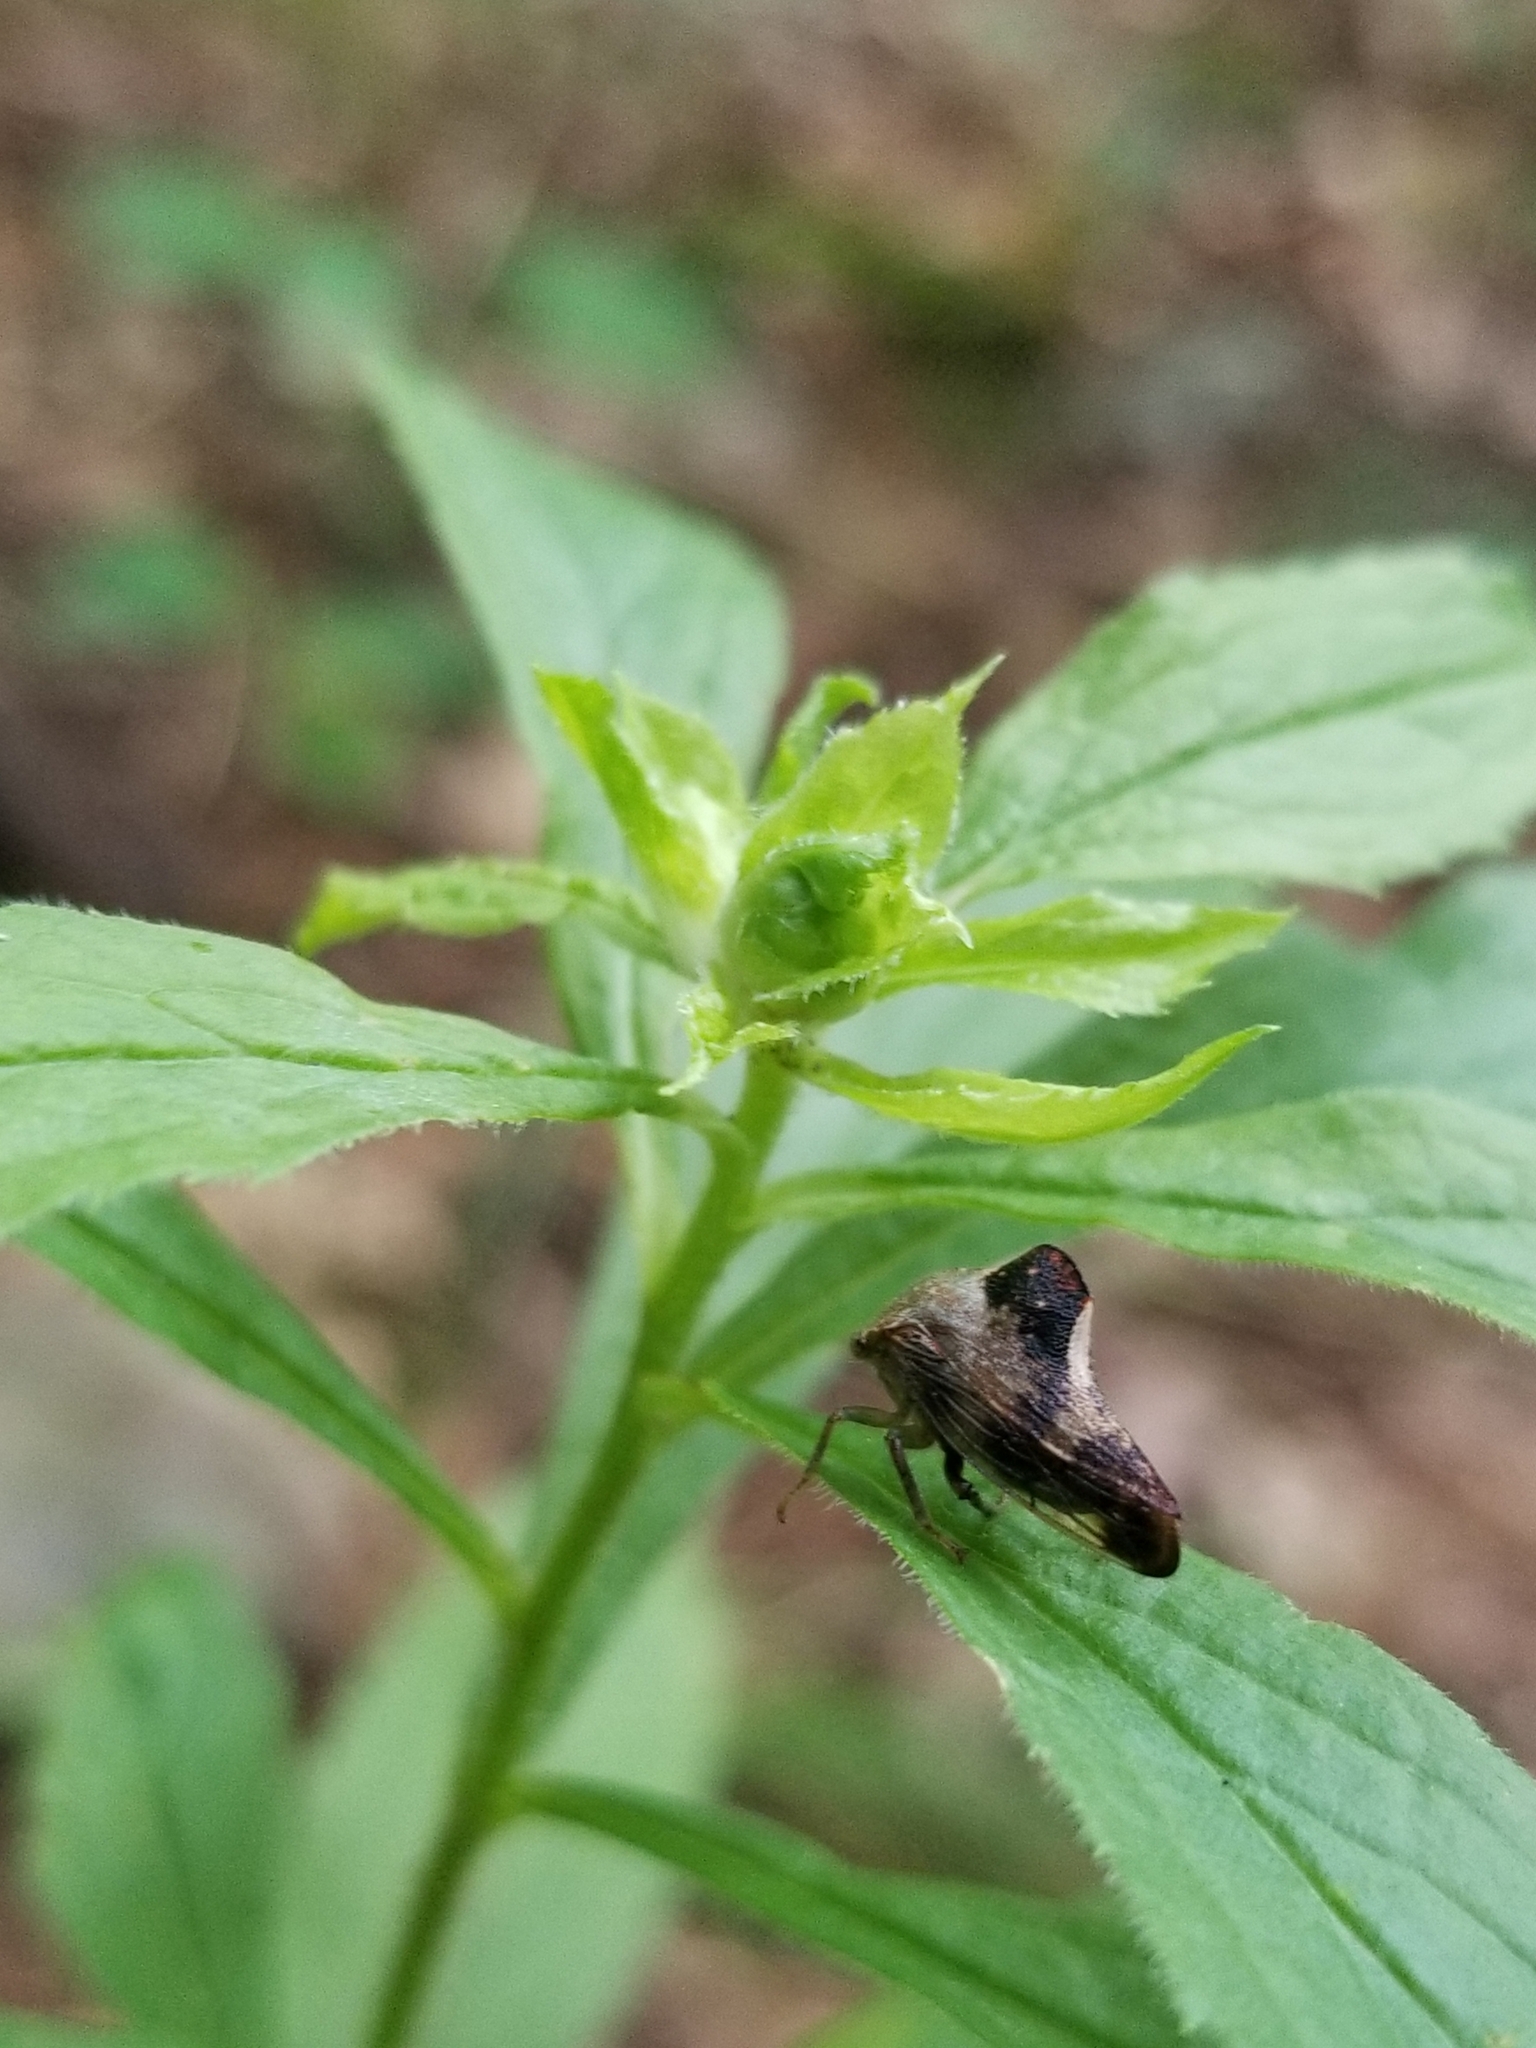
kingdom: Plantae
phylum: Tracheophyta
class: Magnoliopsida
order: Asterales
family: Asteraceae
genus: Solidago
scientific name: Solidago rugosa
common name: Rough-stemmed goldenrod
